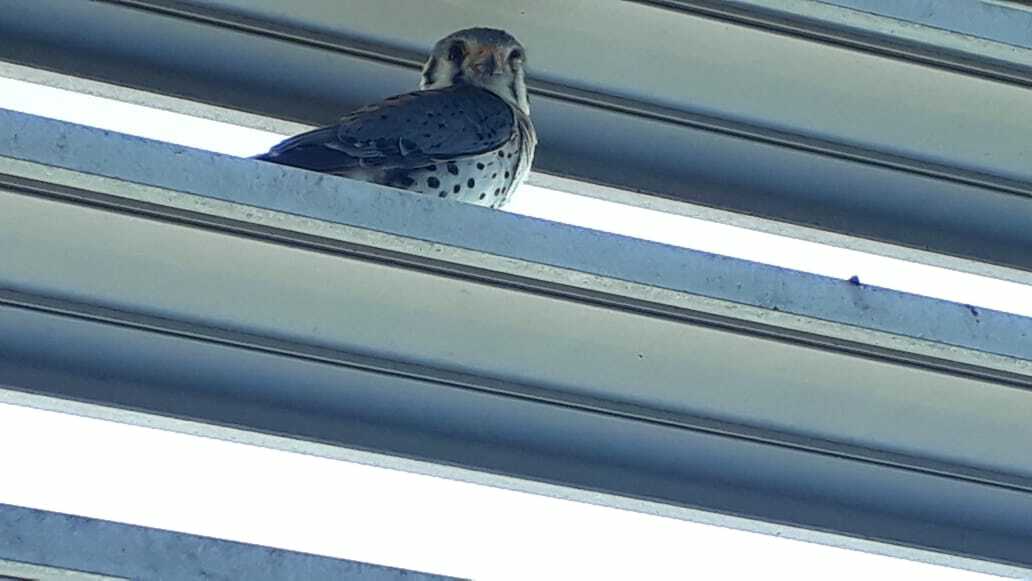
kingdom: Animalia
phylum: Chordata
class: Aves
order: Falconiformes
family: Falconidae
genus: Falco
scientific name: Falco sparverius
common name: American kestrel
